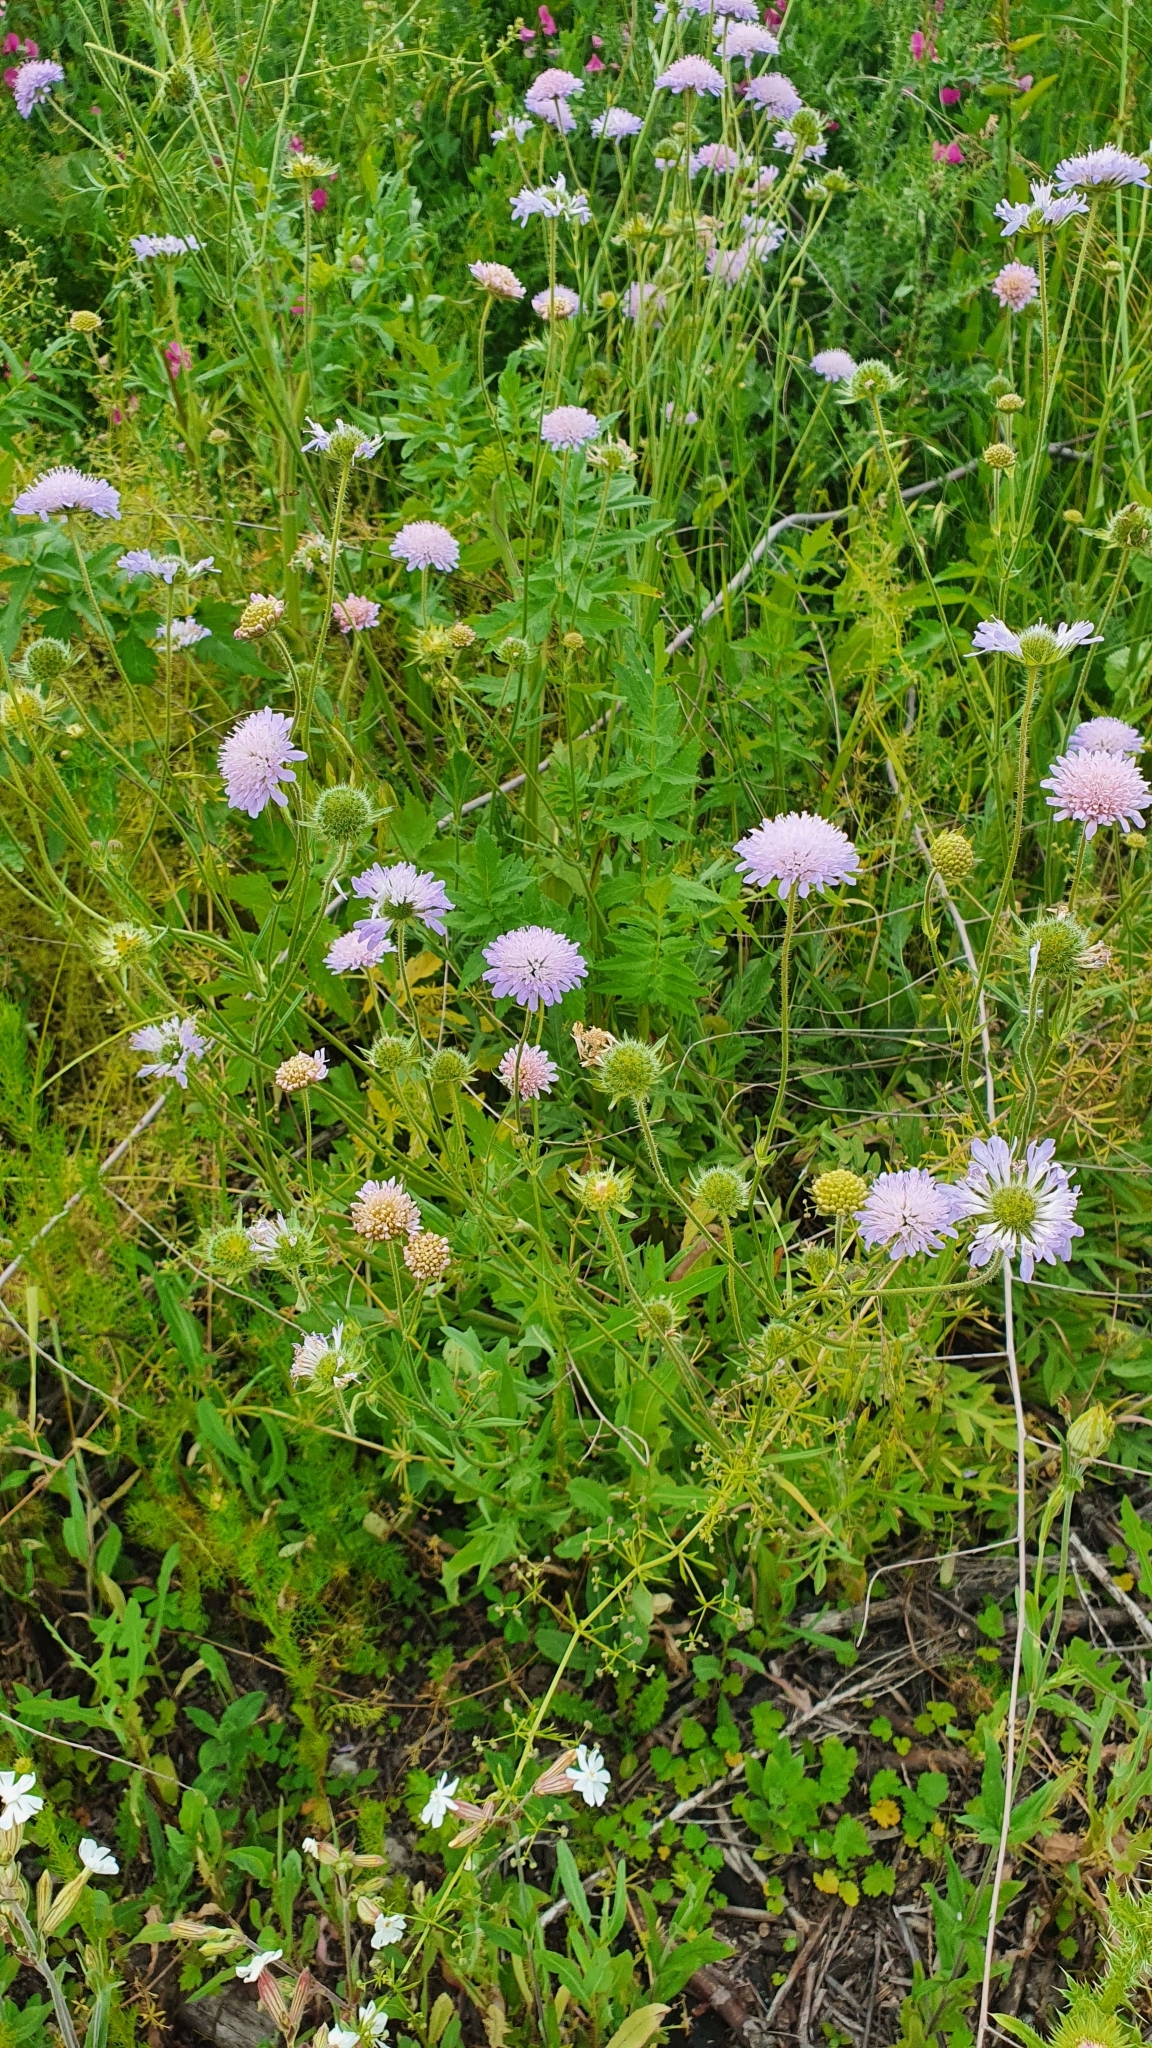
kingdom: Plantae
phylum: Tracheophyta
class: Magnoliopsida
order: Dipsacales
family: Caprifoliaceae
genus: Knautia
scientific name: Knautia arvensis
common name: Field scabiosa
